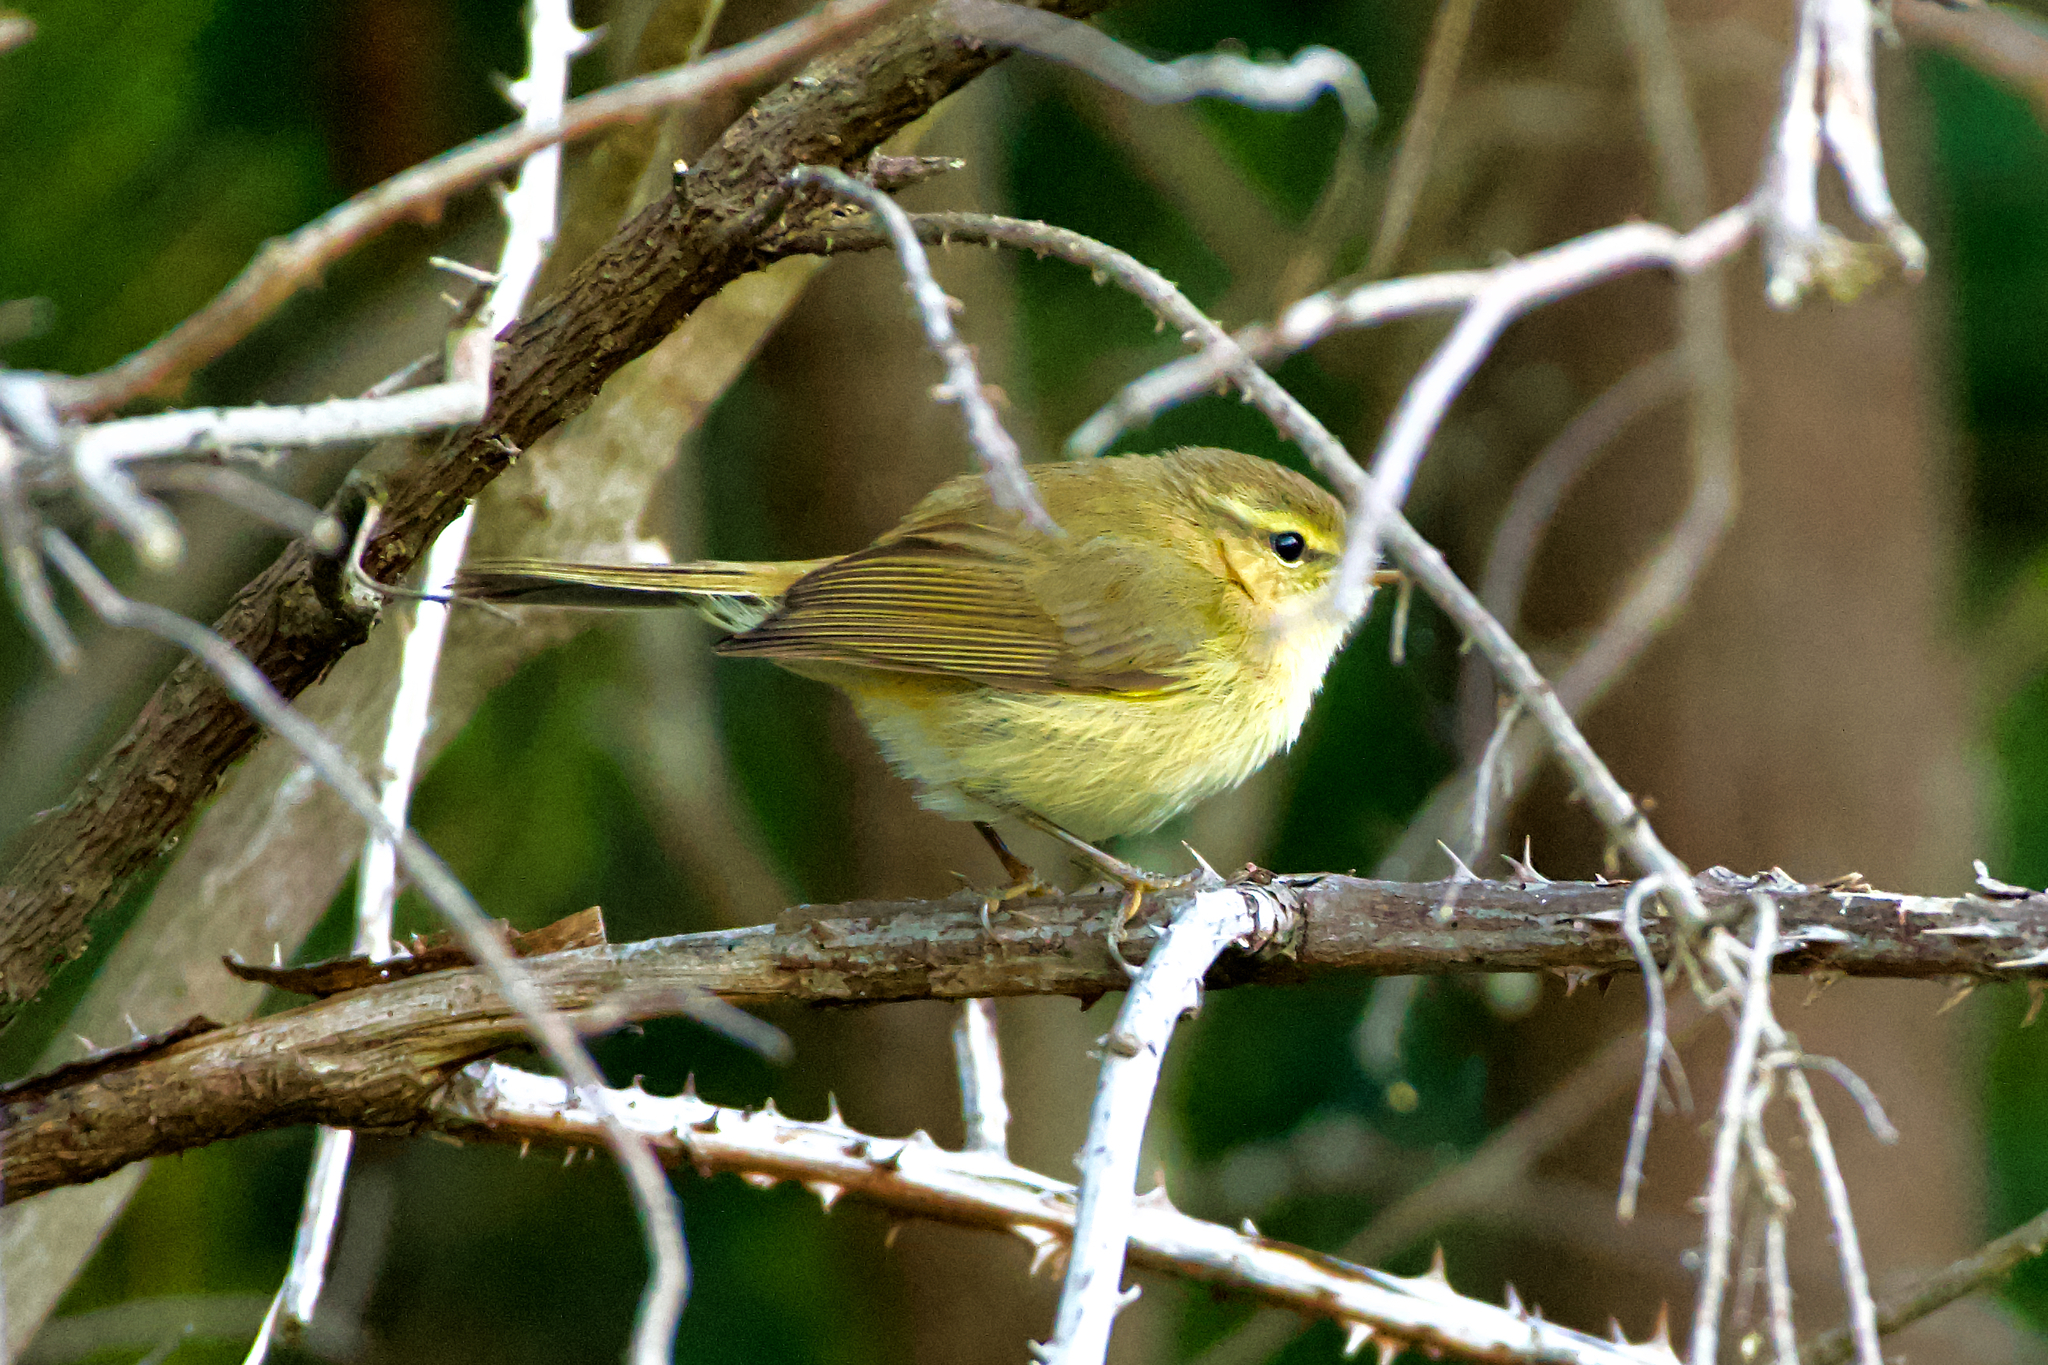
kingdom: Animalia
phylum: Chordata
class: Aves
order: Passeriformes
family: Phylloscopidae
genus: Phylloscopus
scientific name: Phylloscopus canariensis
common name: Canary islands chiffchaff
